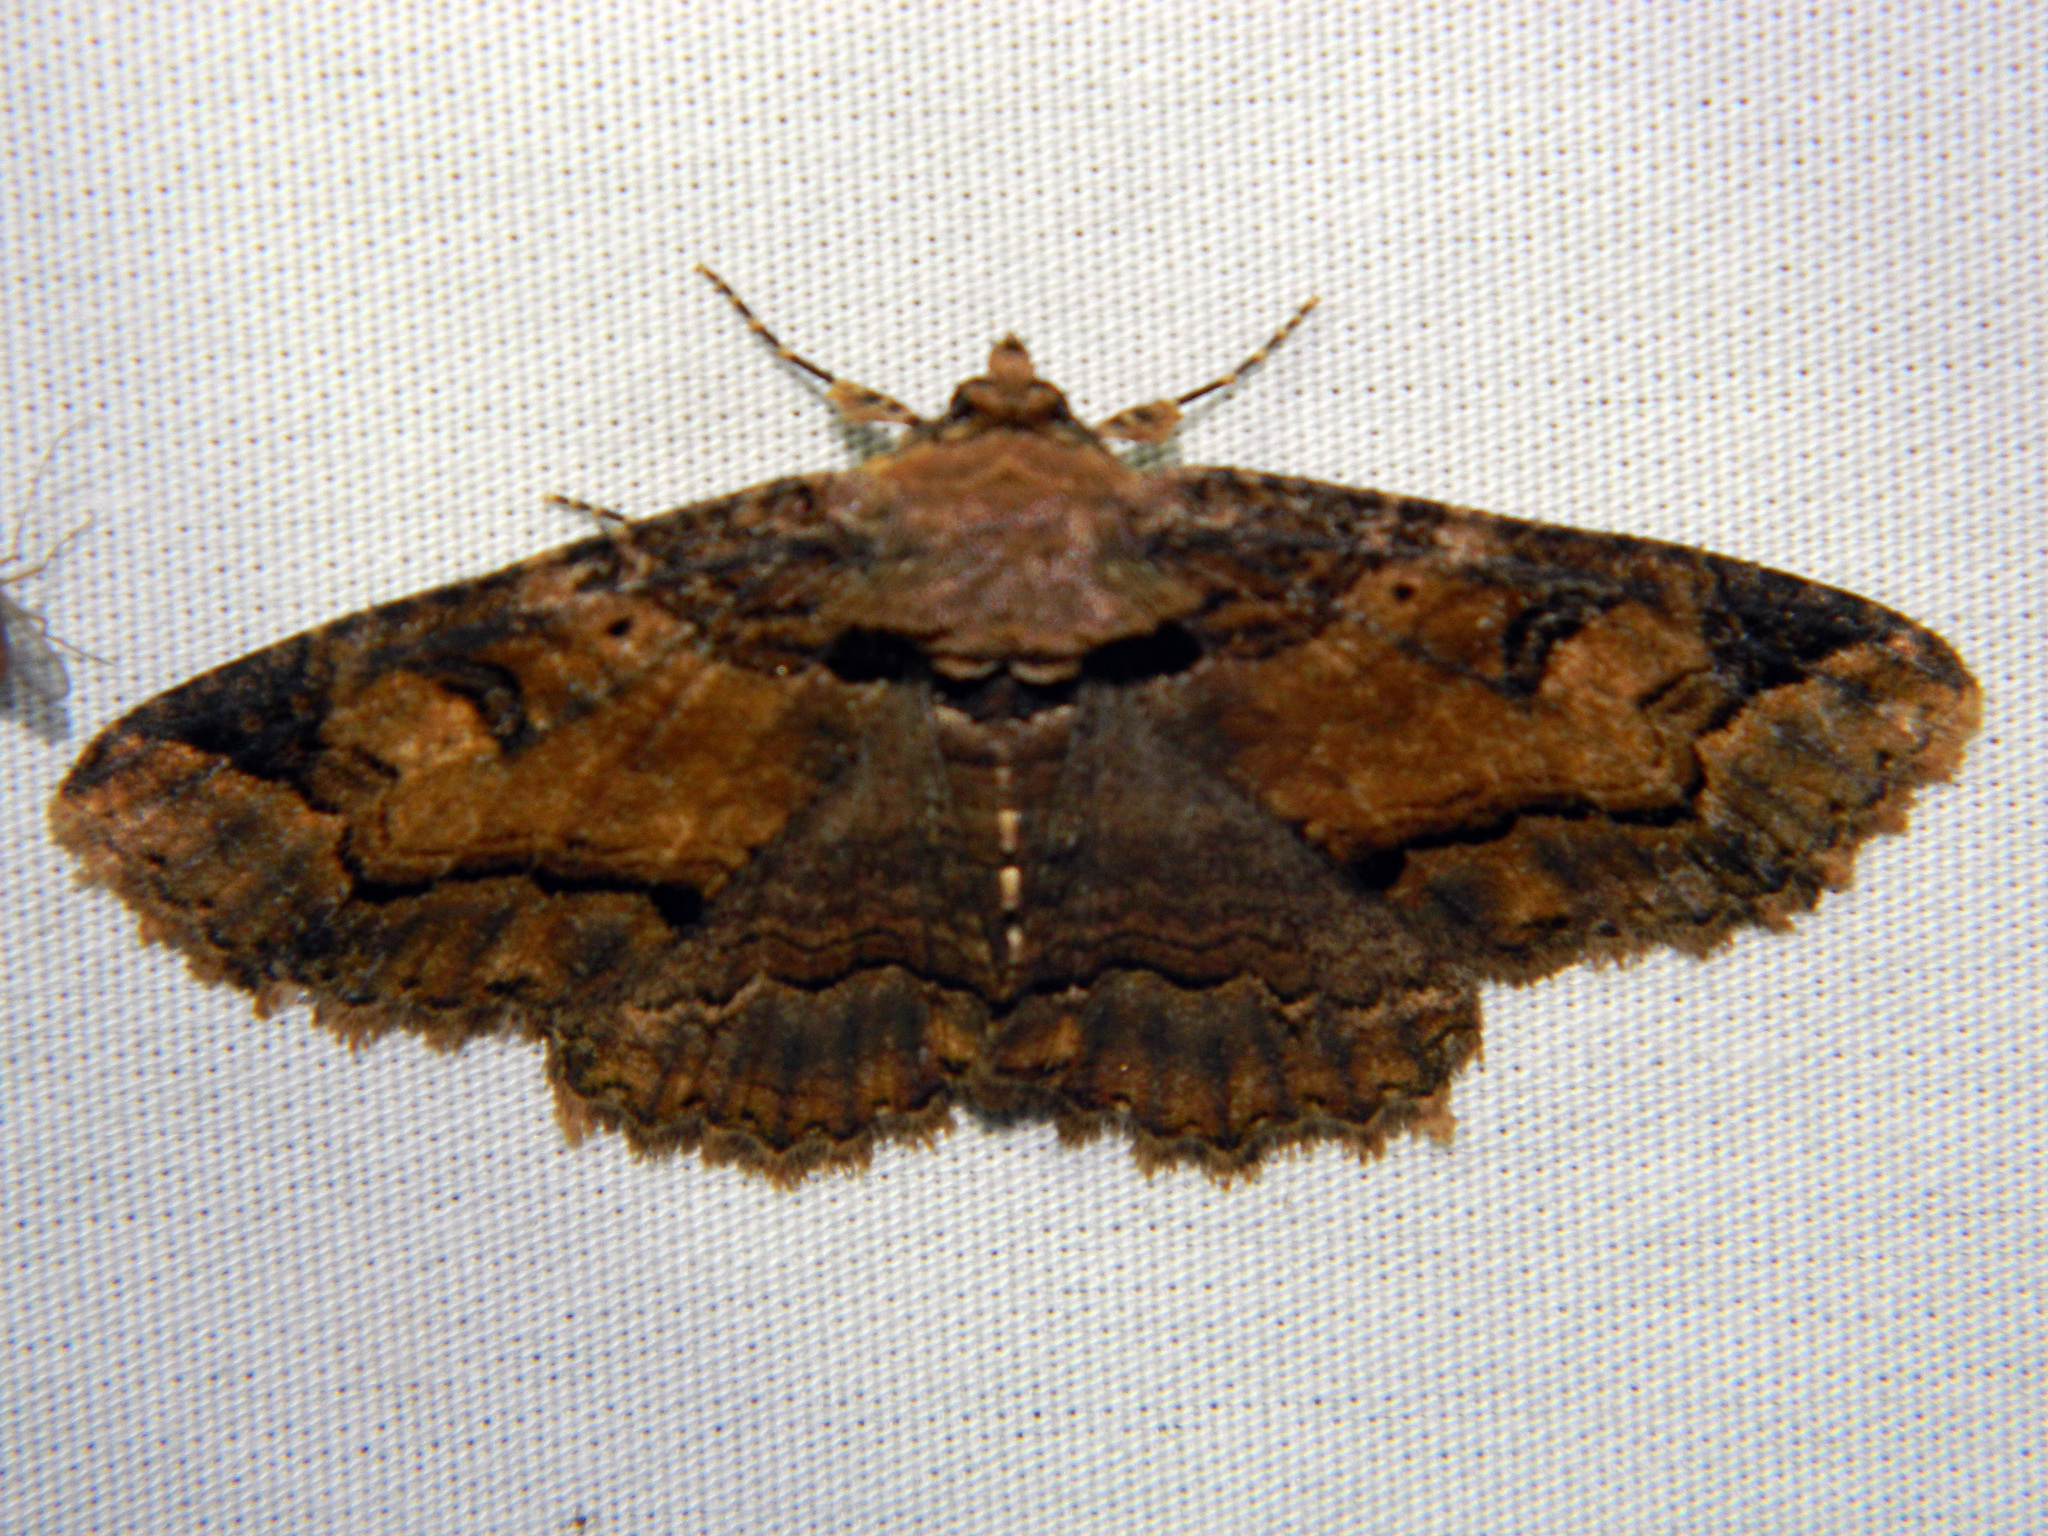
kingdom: Animalia
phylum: Arthropoda
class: Insecta
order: Lepidoptera
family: Erebidae
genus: Zale
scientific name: Zale minerea
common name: Colorful zale moth
